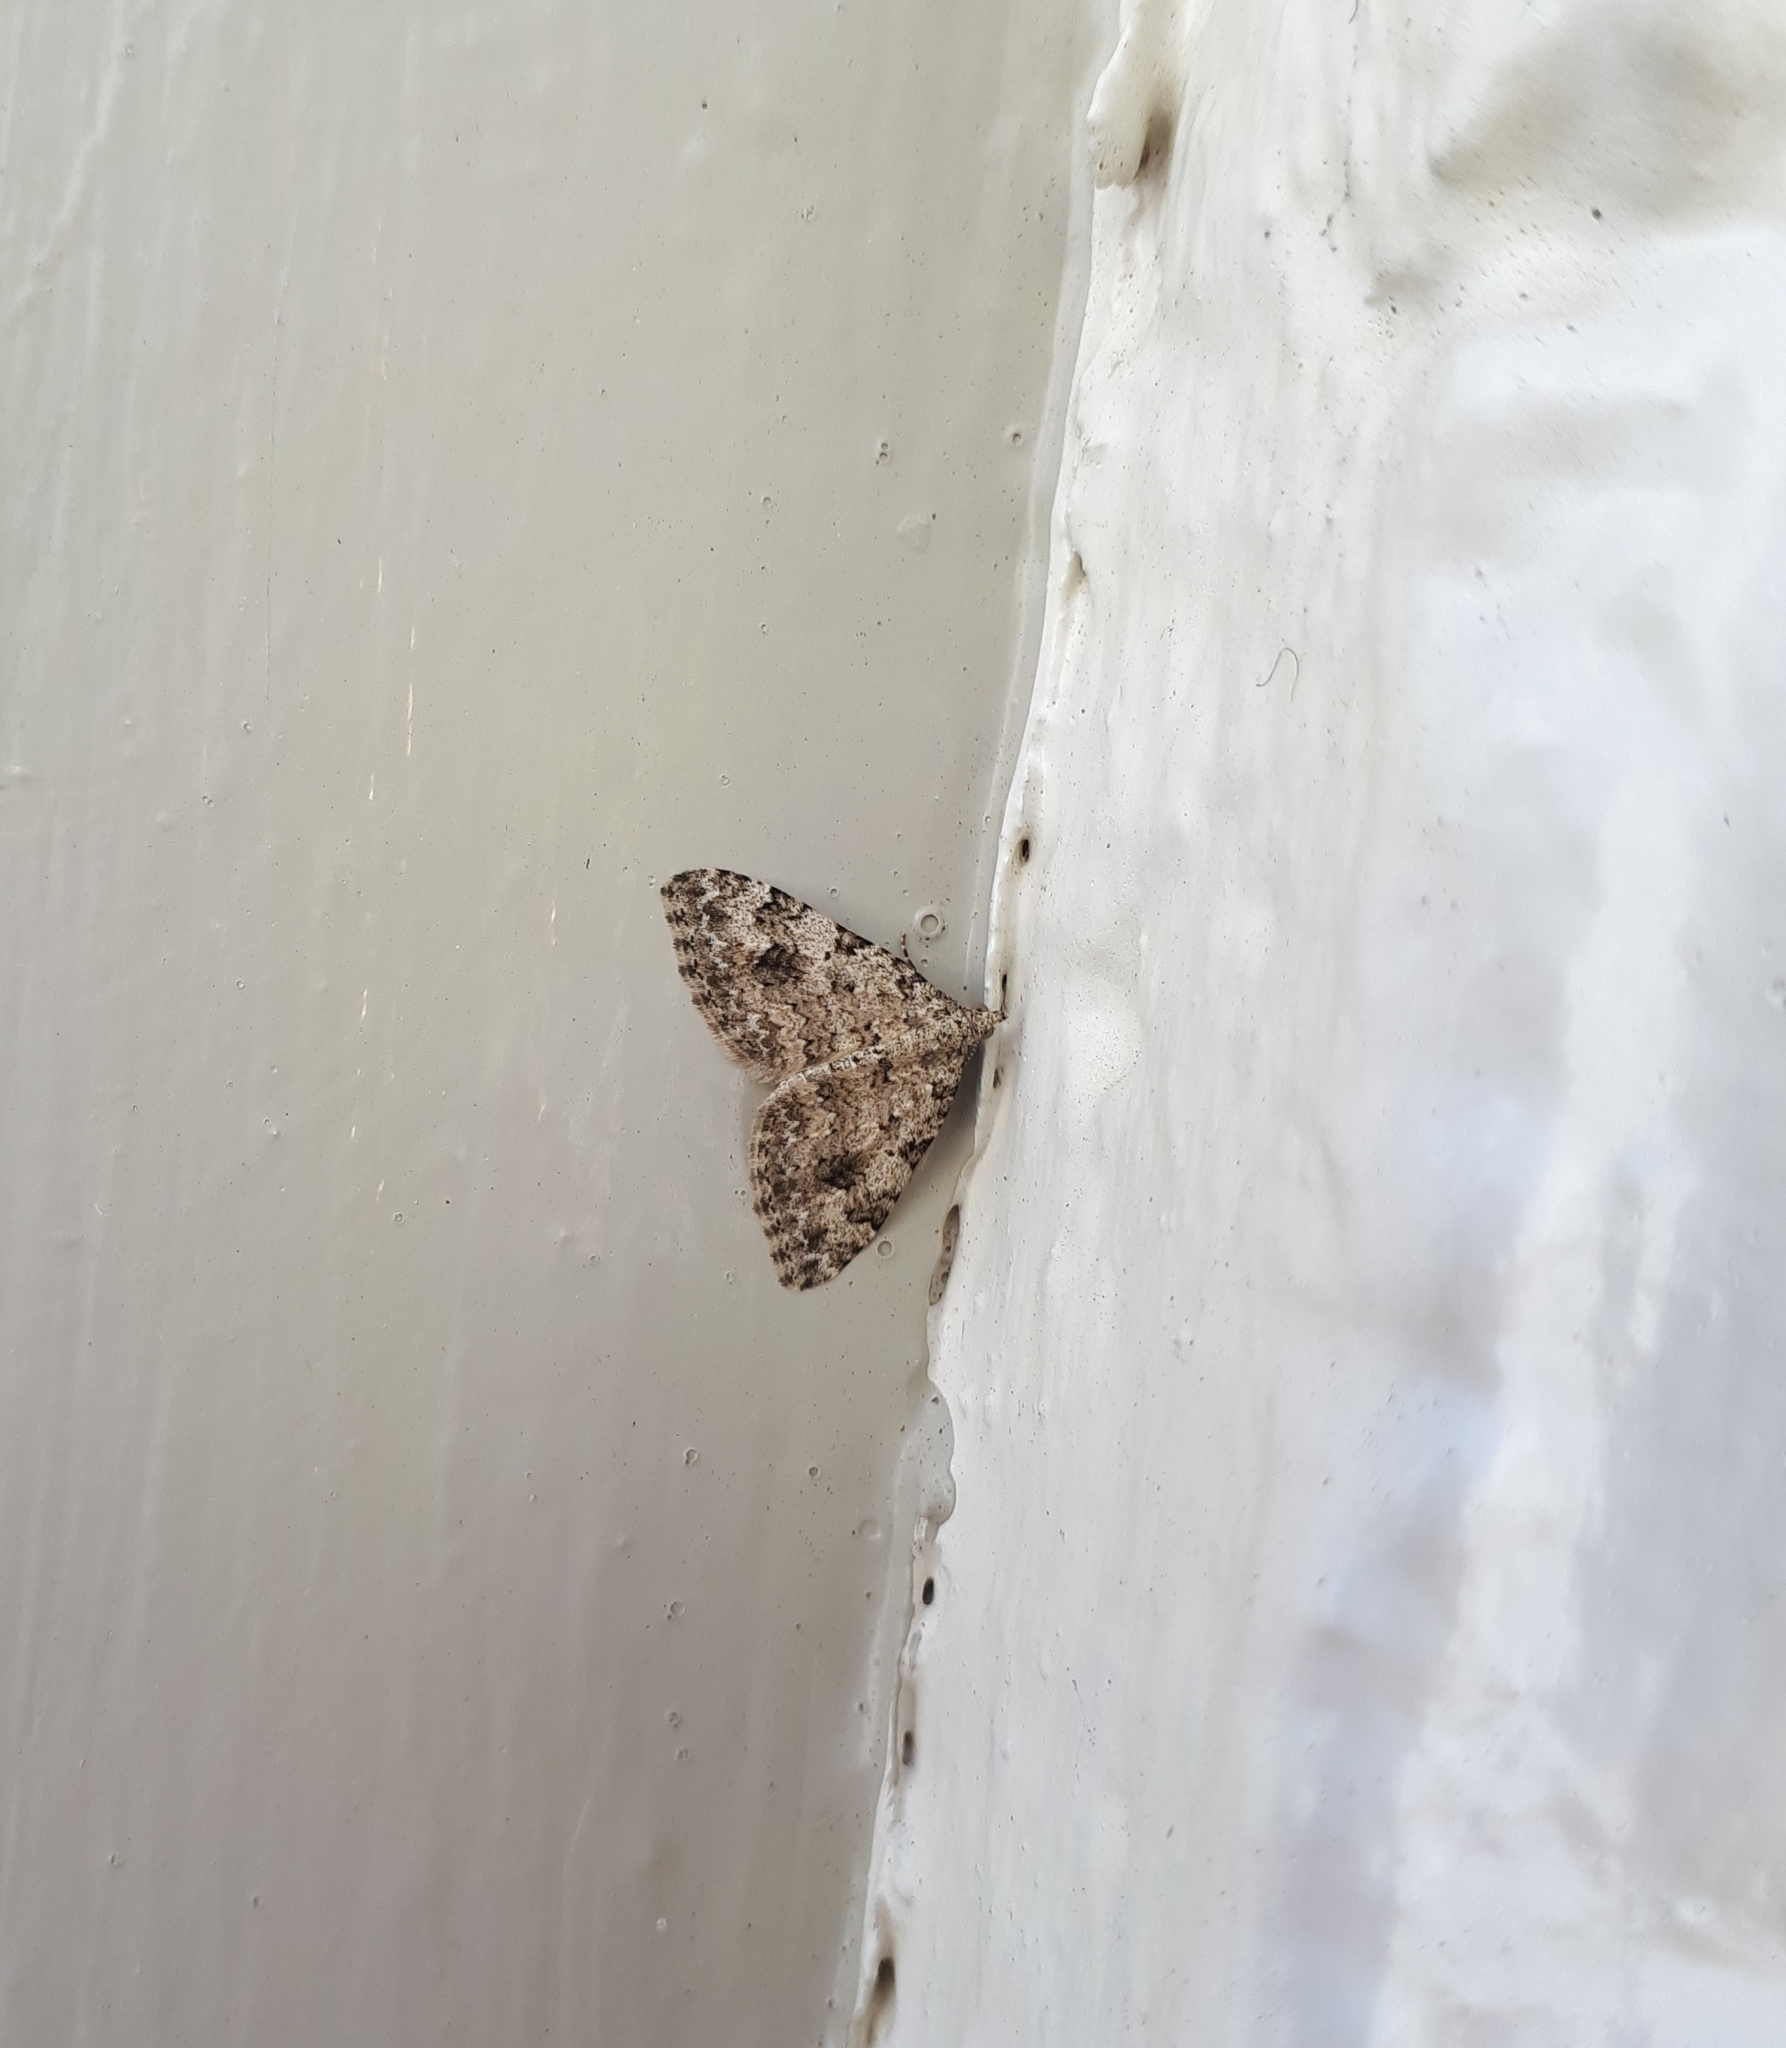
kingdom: Animalia
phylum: Arthropoda
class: Insecta
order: Lepidoptera
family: Geometridae
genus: Helastia
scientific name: Helastia cinerearia
